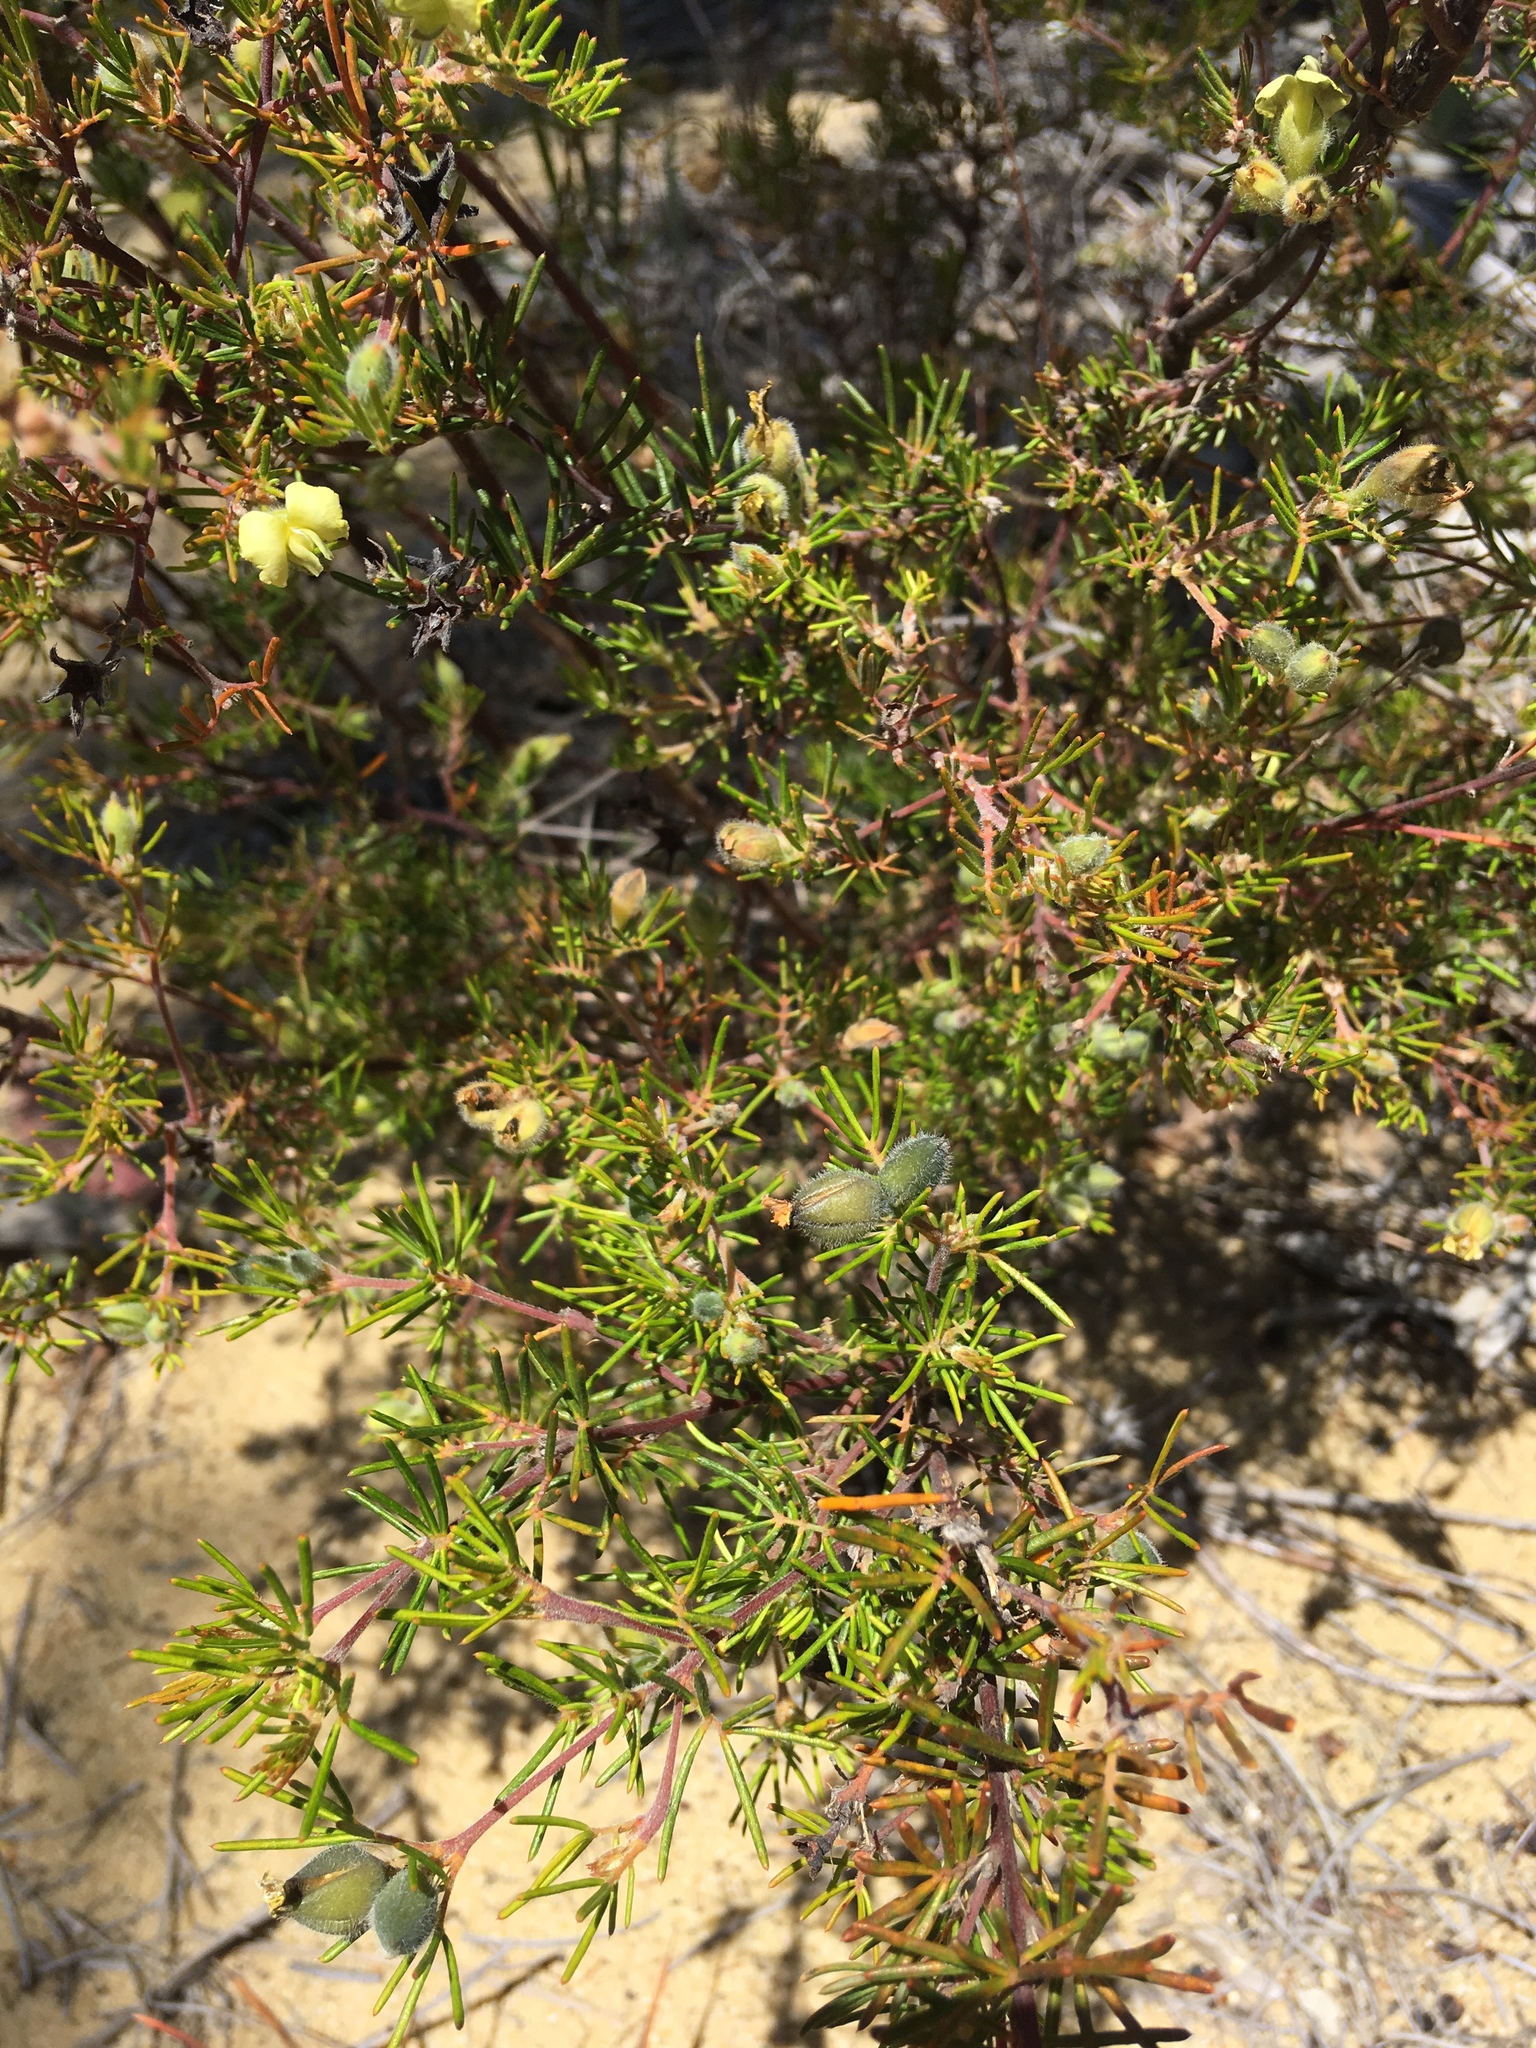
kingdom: Plantae
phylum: Tracheophyta
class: Magnoliopsida
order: Fabales
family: Fabaceae
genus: Gompholobium
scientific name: Gompholobium tomentosum
